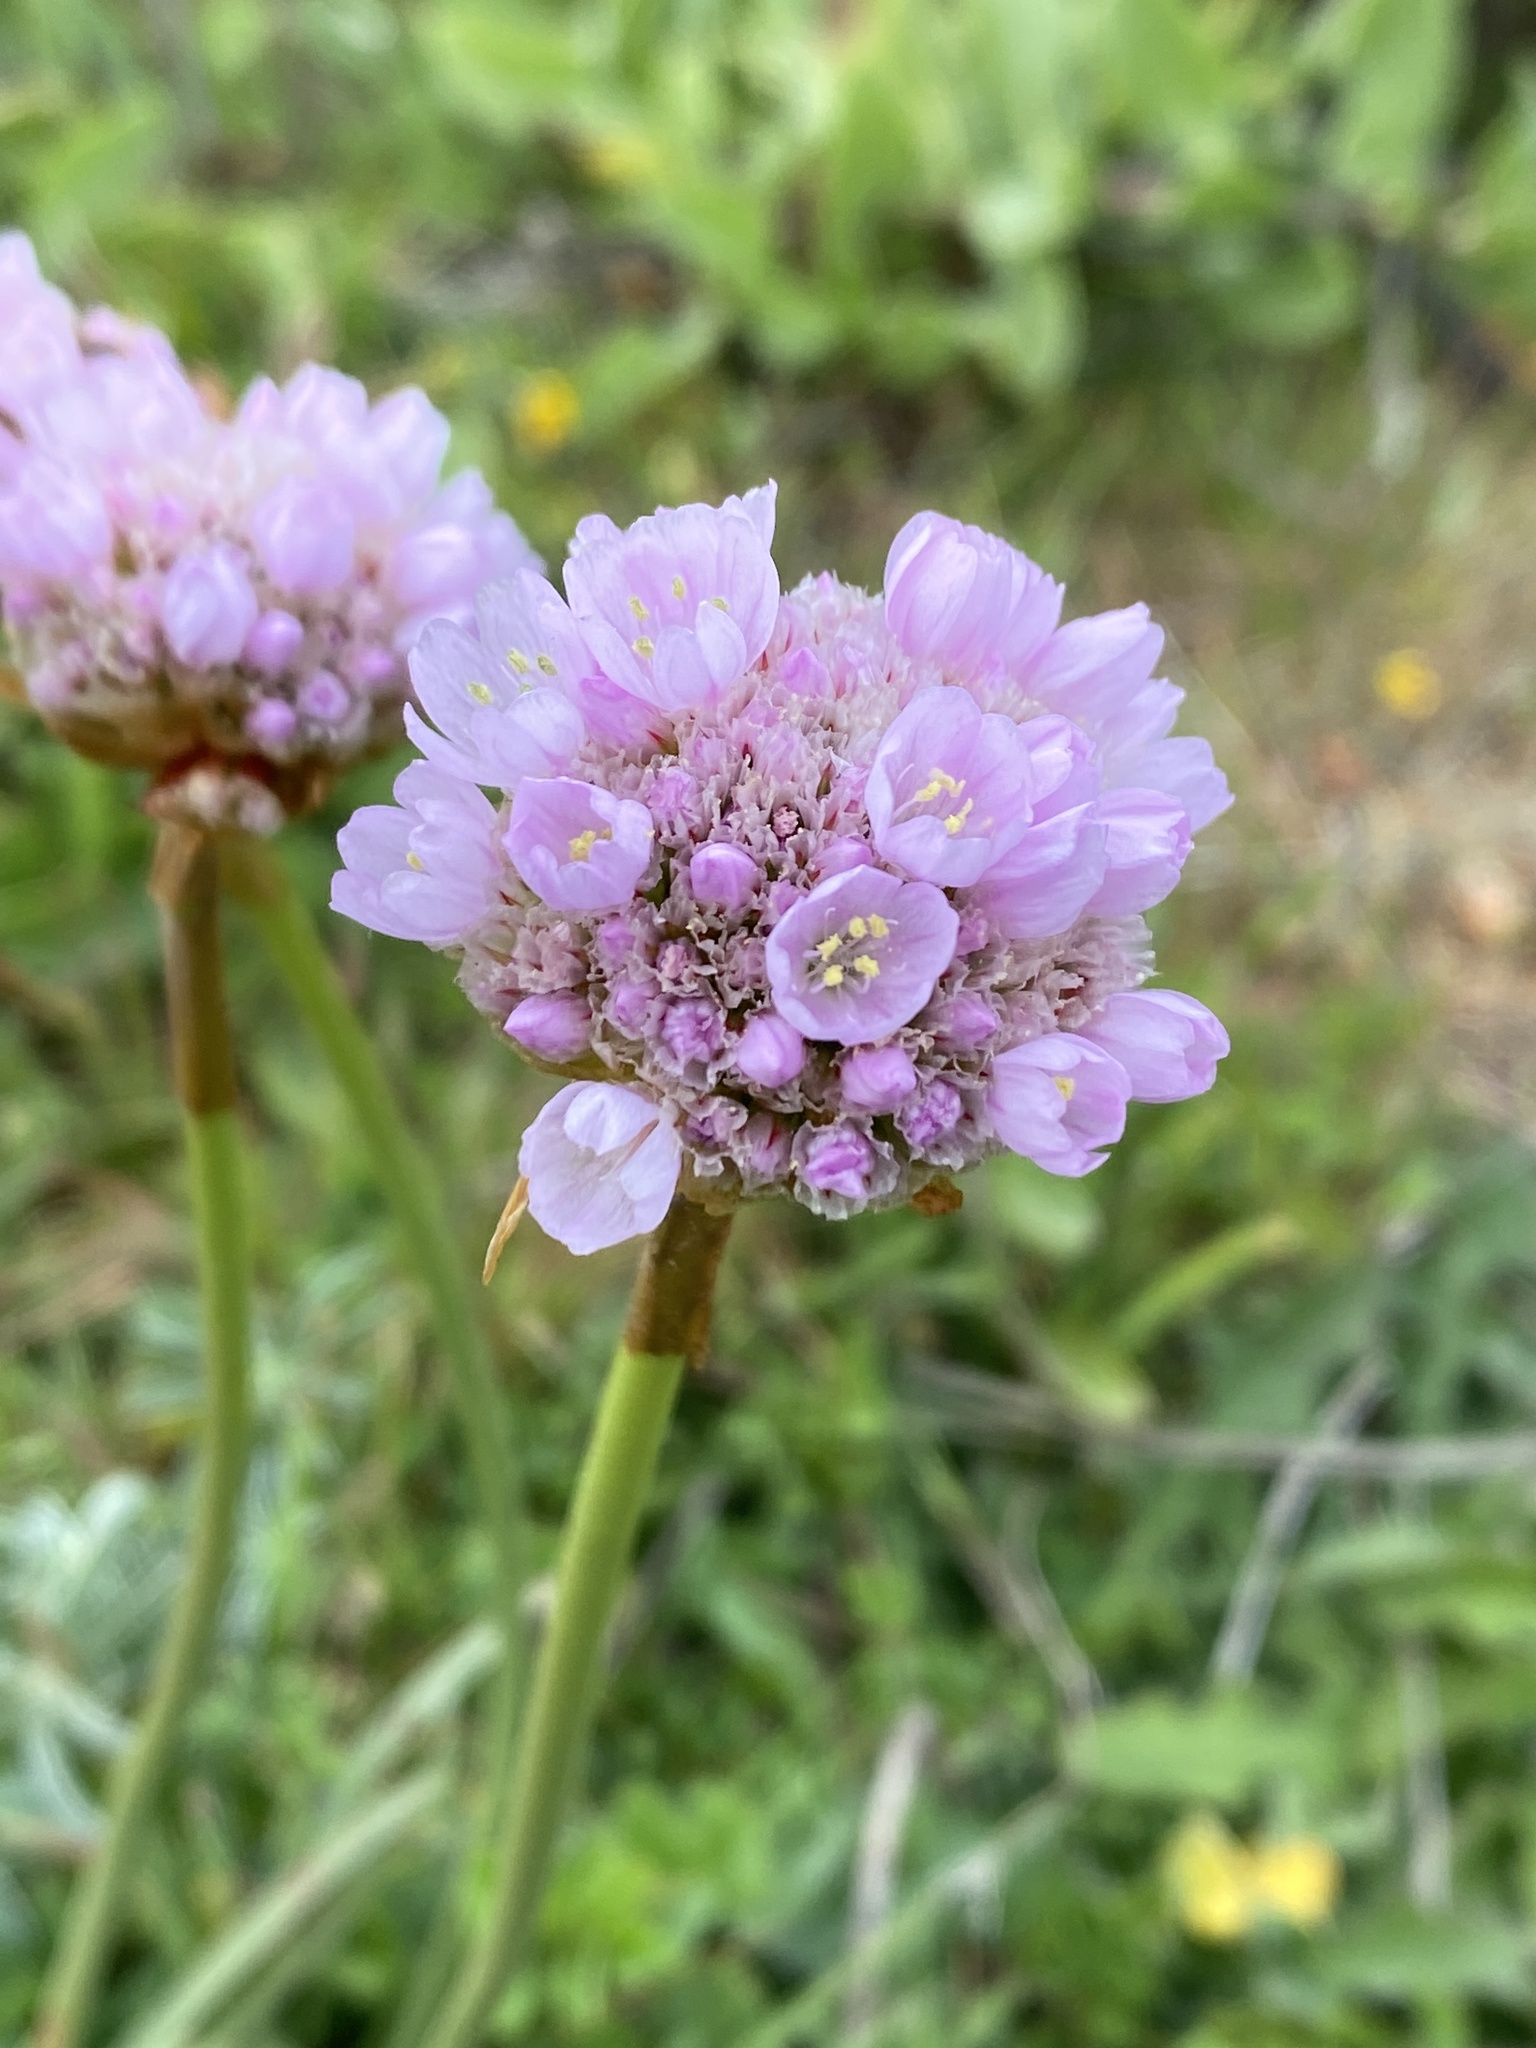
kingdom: Plantae
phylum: Tracheophyta
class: Magnoliopsida
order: Caryophyllales
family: Plumbaginaceae
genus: Armeria
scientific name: Armeria maritima
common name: Thrift
